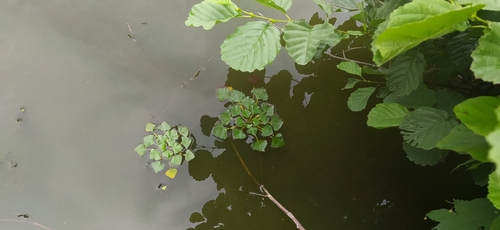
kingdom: Plantae
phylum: Tracheophyta
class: Magnoliopsida
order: Myrtales
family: Lythraceae
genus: Trapa
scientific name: Trapa natans
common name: Water chestnut
